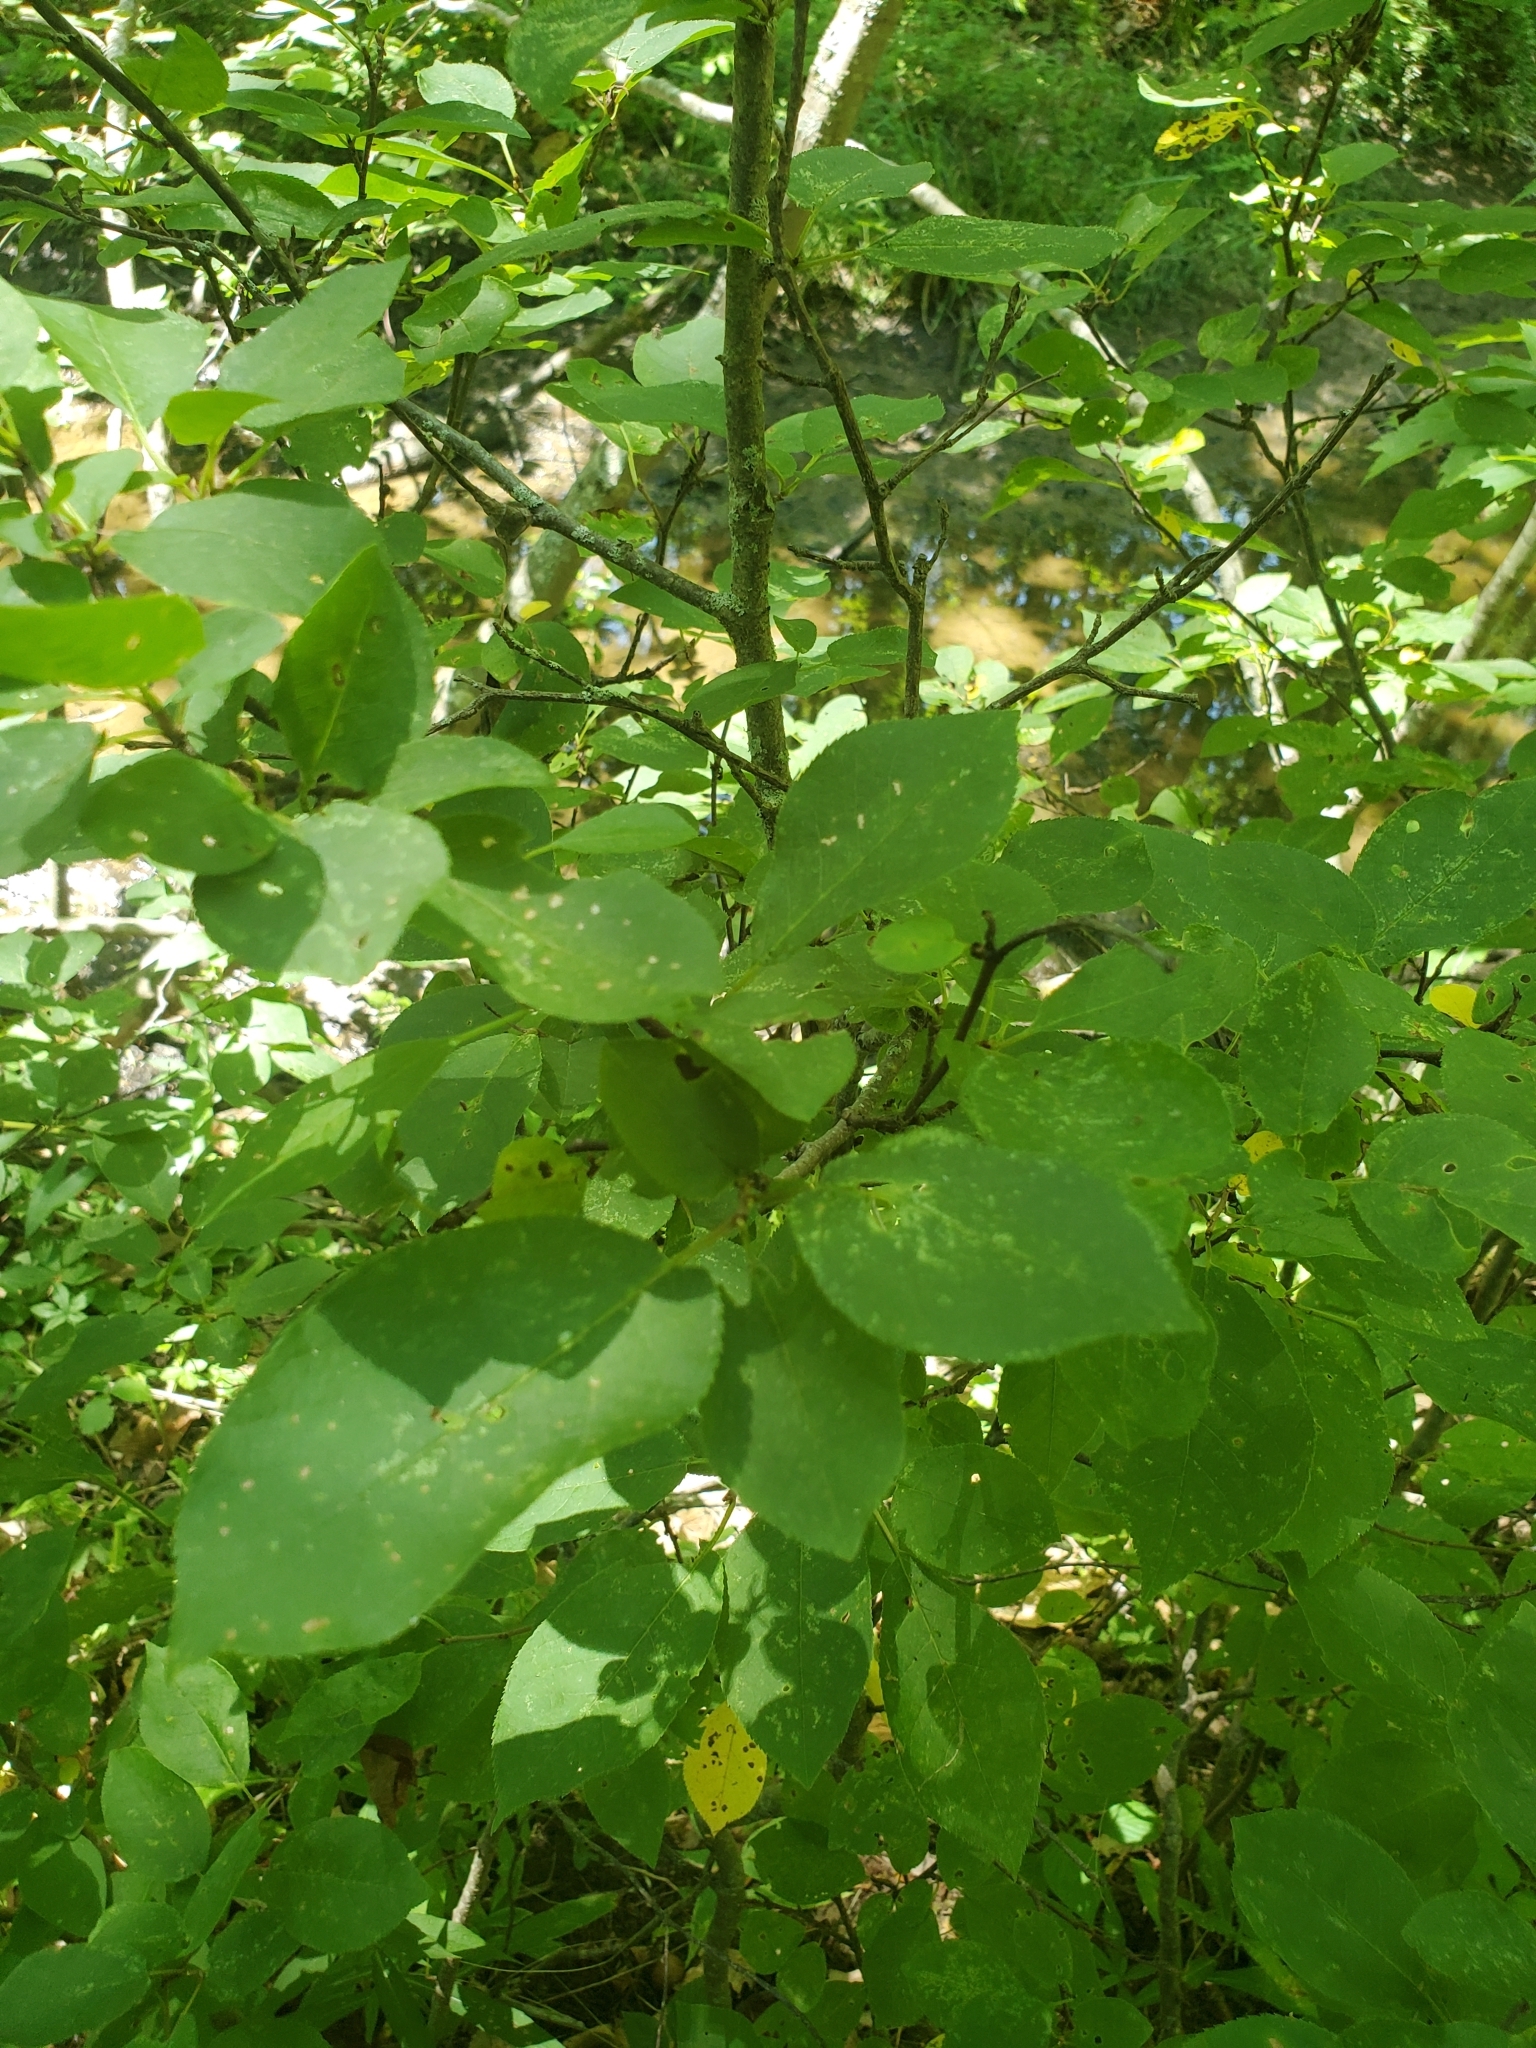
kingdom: Plantae
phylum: Tracheophyta
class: Magnoliopsida
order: Rosales
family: Rosaceae
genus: Prunus
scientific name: Prunus virginiana
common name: Chokecherry
